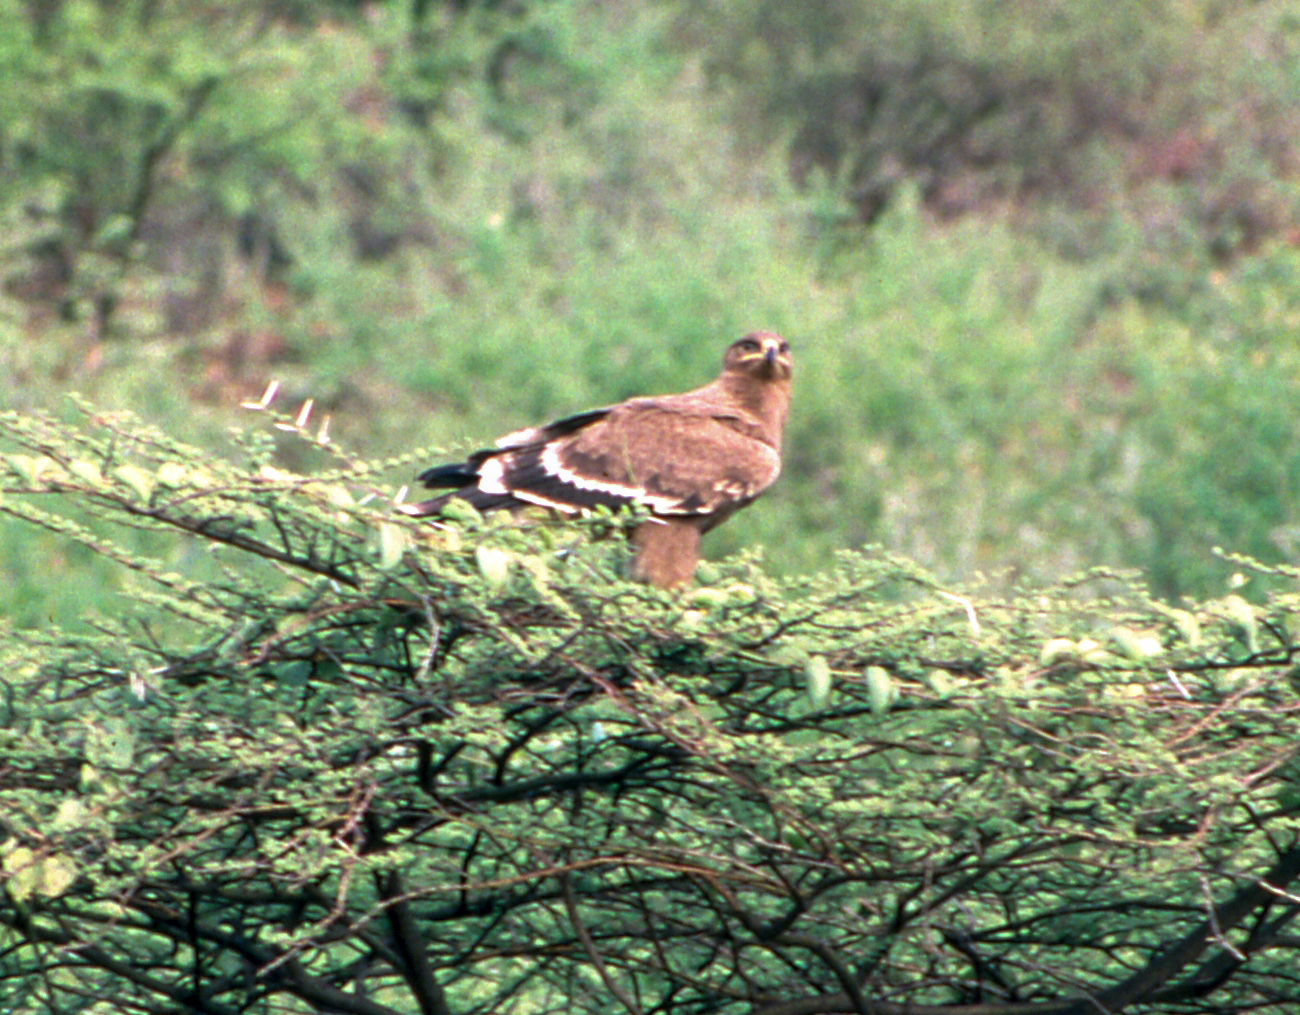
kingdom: Animalia
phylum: Chordata
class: Aves
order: Accipitriformes
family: Accipitridae
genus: Aquila
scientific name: Aquila nipalensis
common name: Steppe eagle
